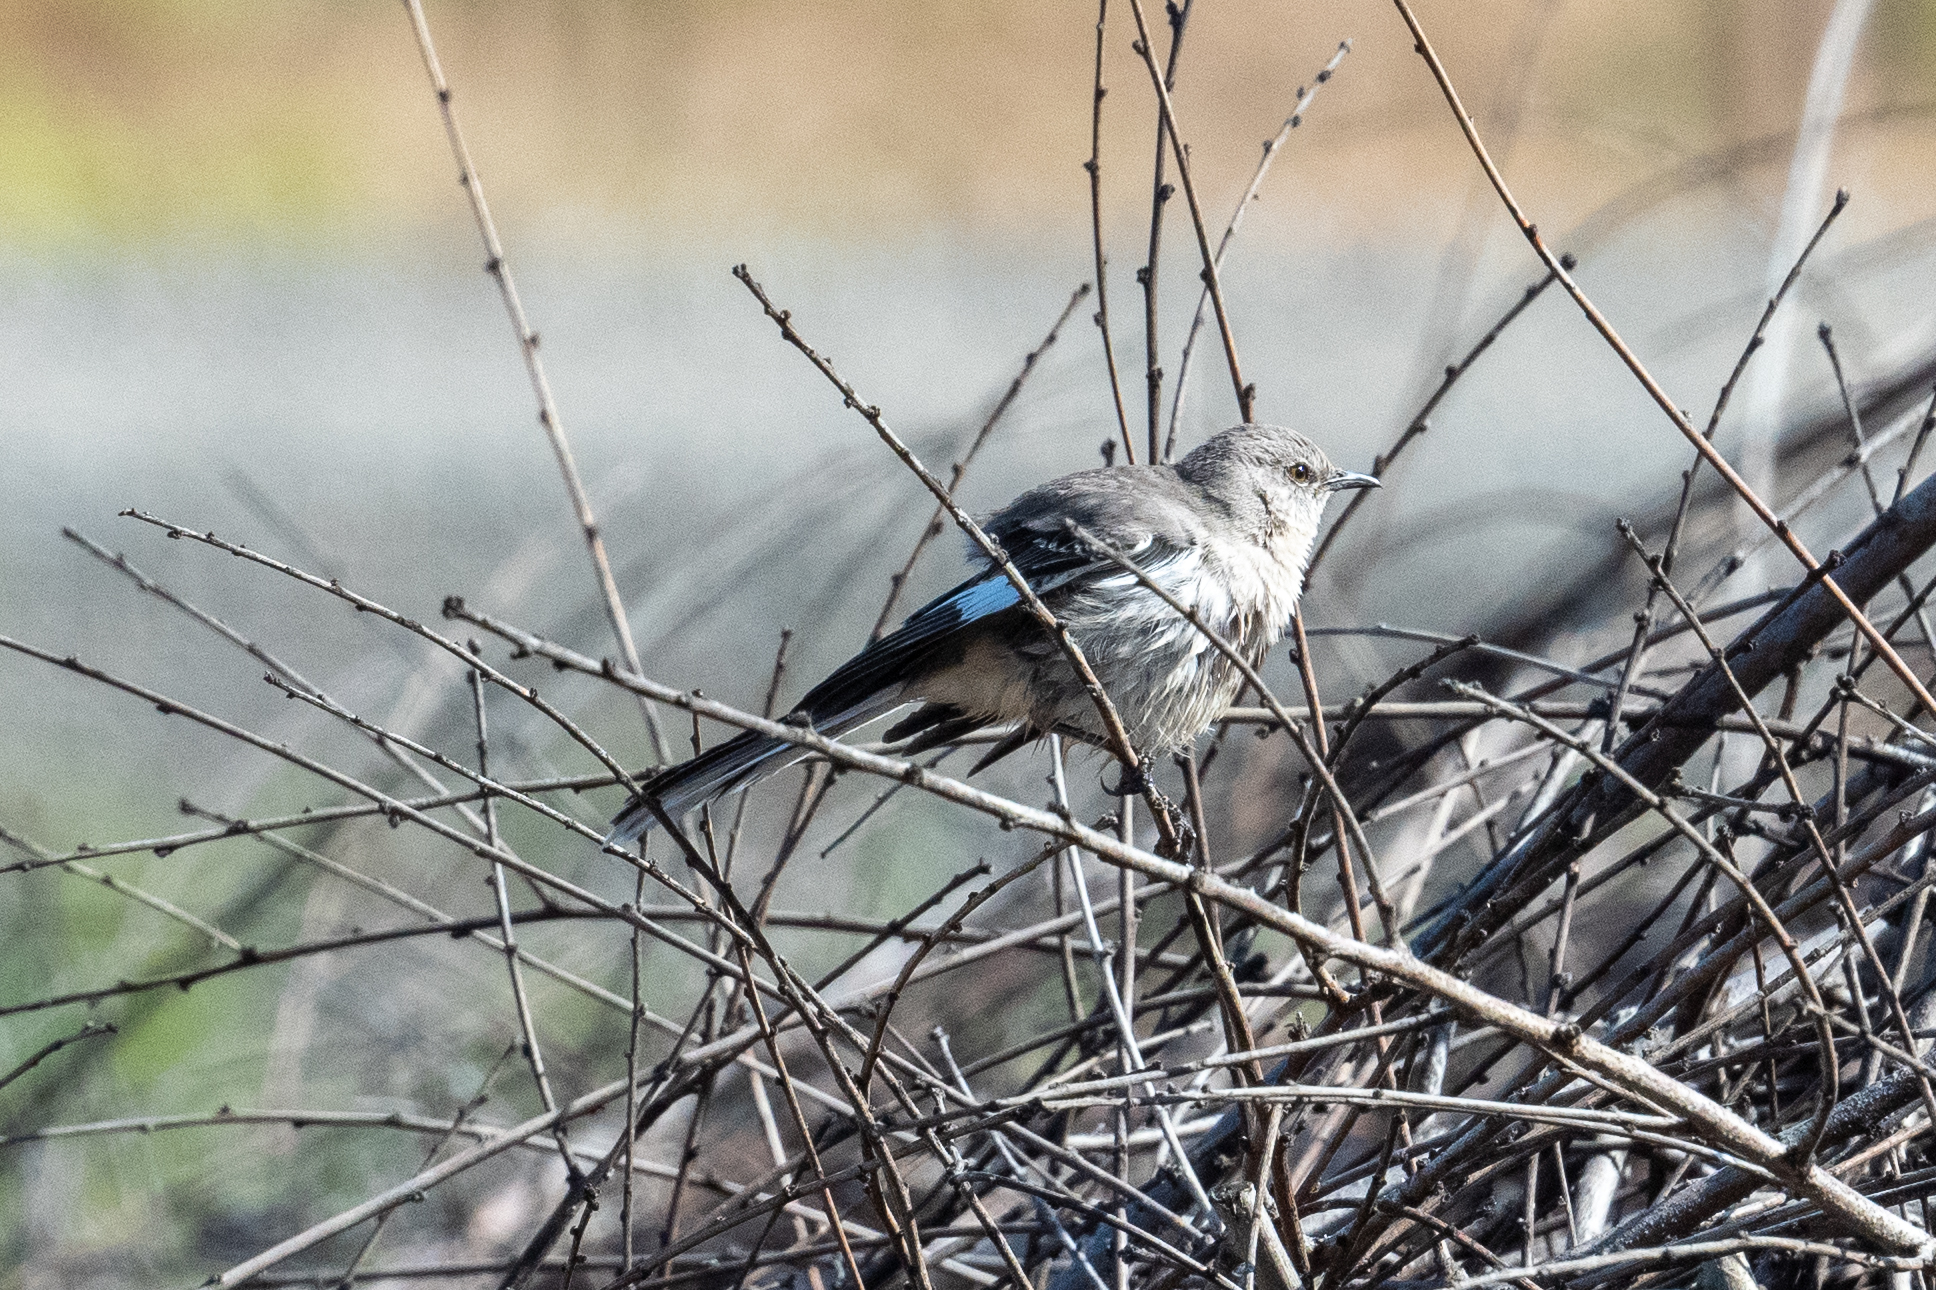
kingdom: Animalia
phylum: Chordata
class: Aves
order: Passeriformes
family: Mimidae
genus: Mimus
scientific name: Mimus polyglottos
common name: Northern mockingbird
